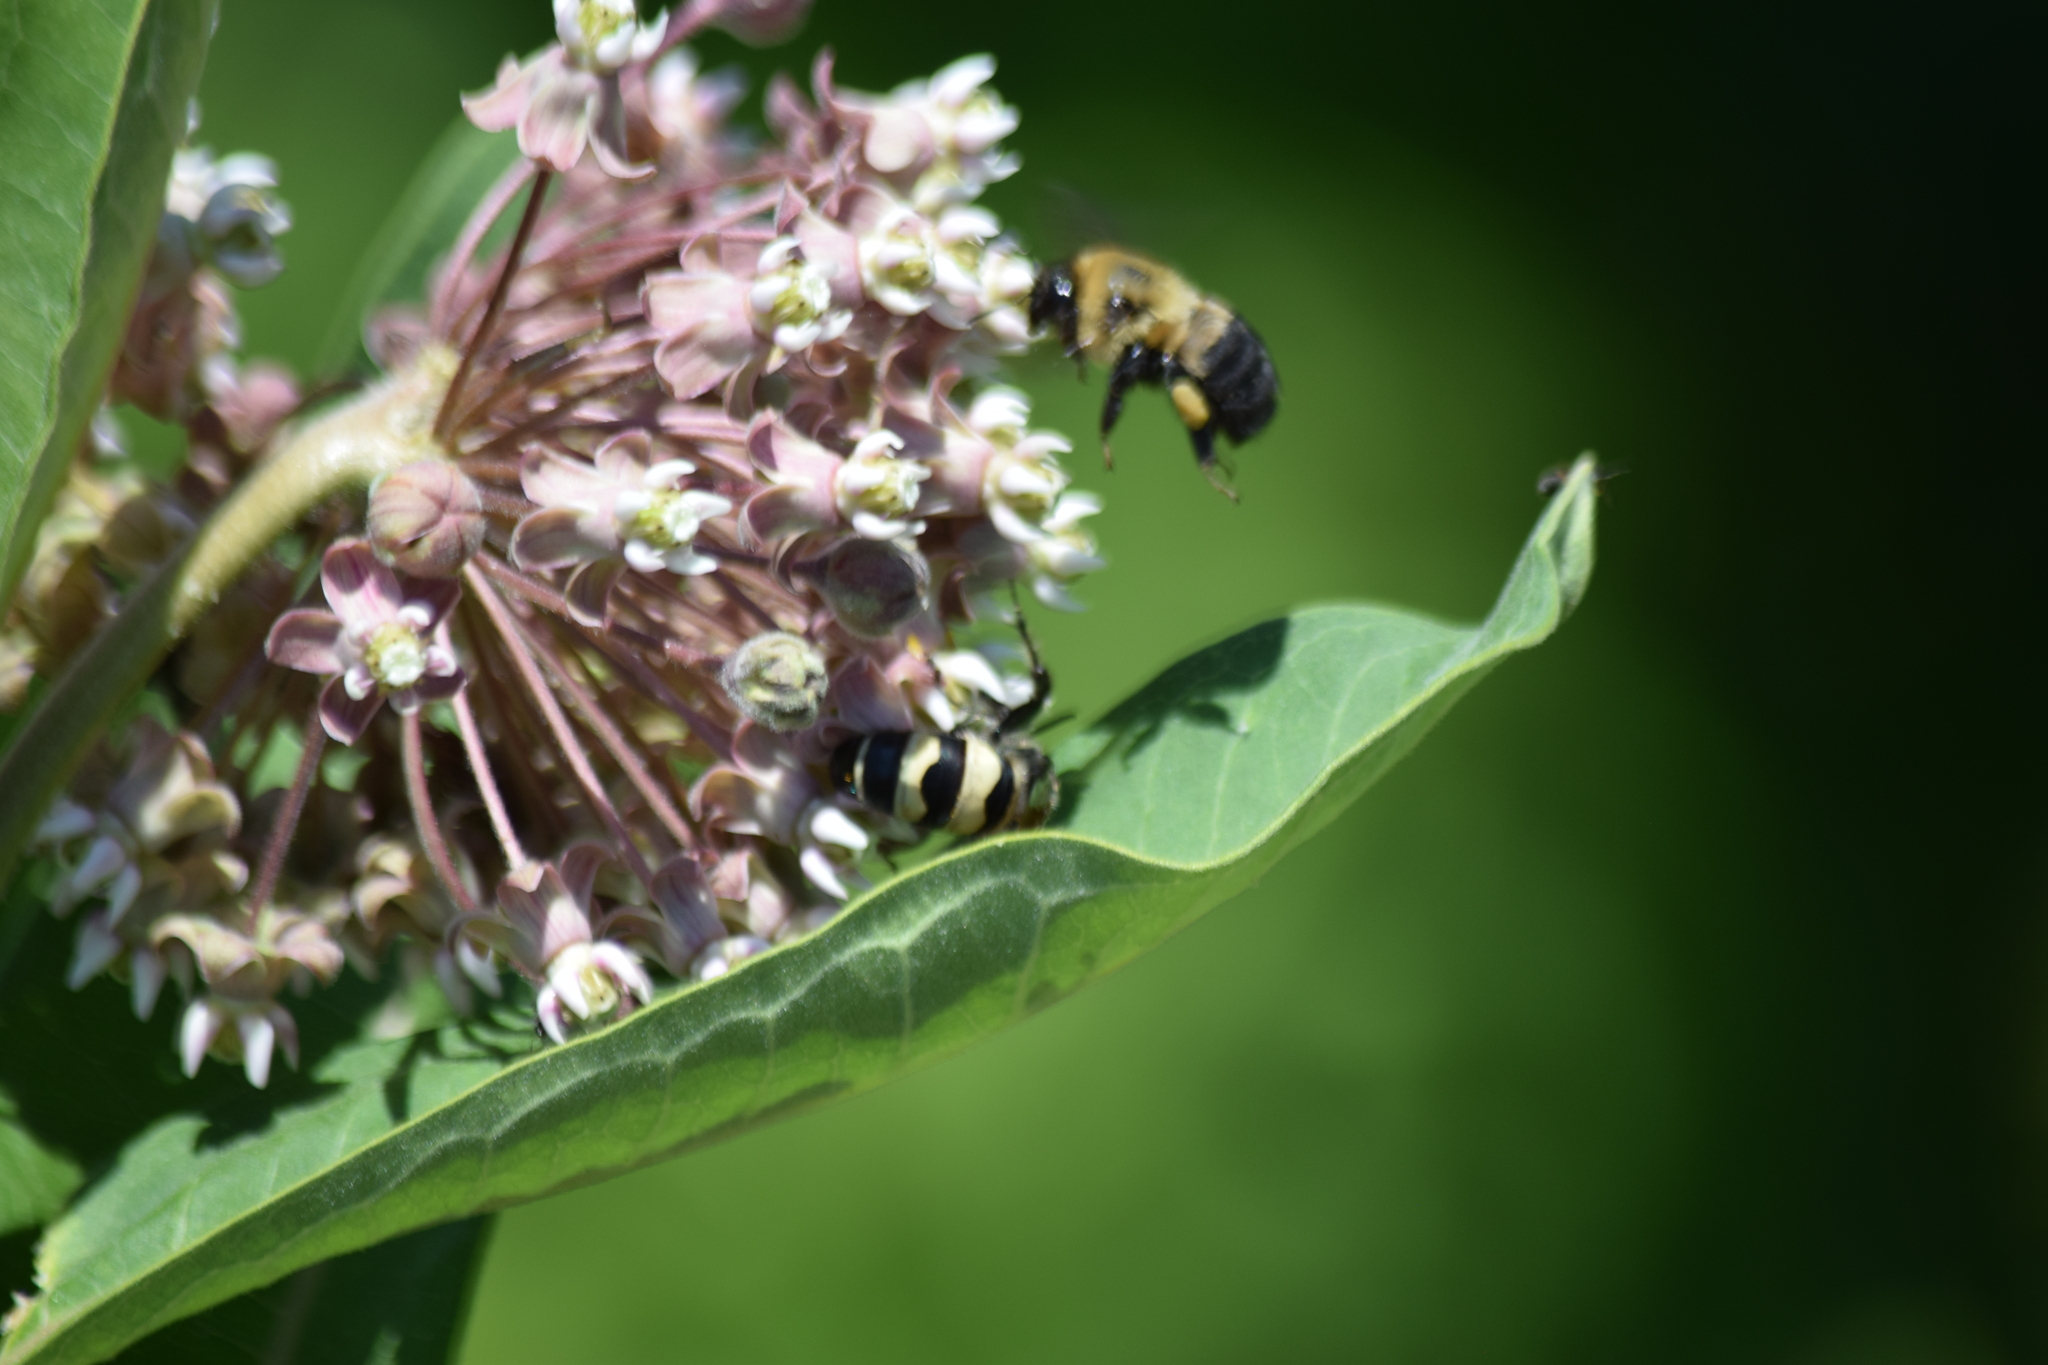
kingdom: Animalia
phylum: Arthropoda
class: Insecta
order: Hymenoptera
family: Apidae
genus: Bombus
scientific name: Bombus griseocollis
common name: Brown-belted bumble bee
